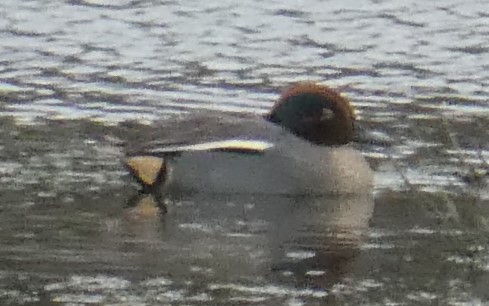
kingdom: Animalia
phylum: Chordata
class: Aves
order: Anseriformes
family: Anatidae
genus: Anas
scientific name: Anas crecca
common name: Eurasian teal
